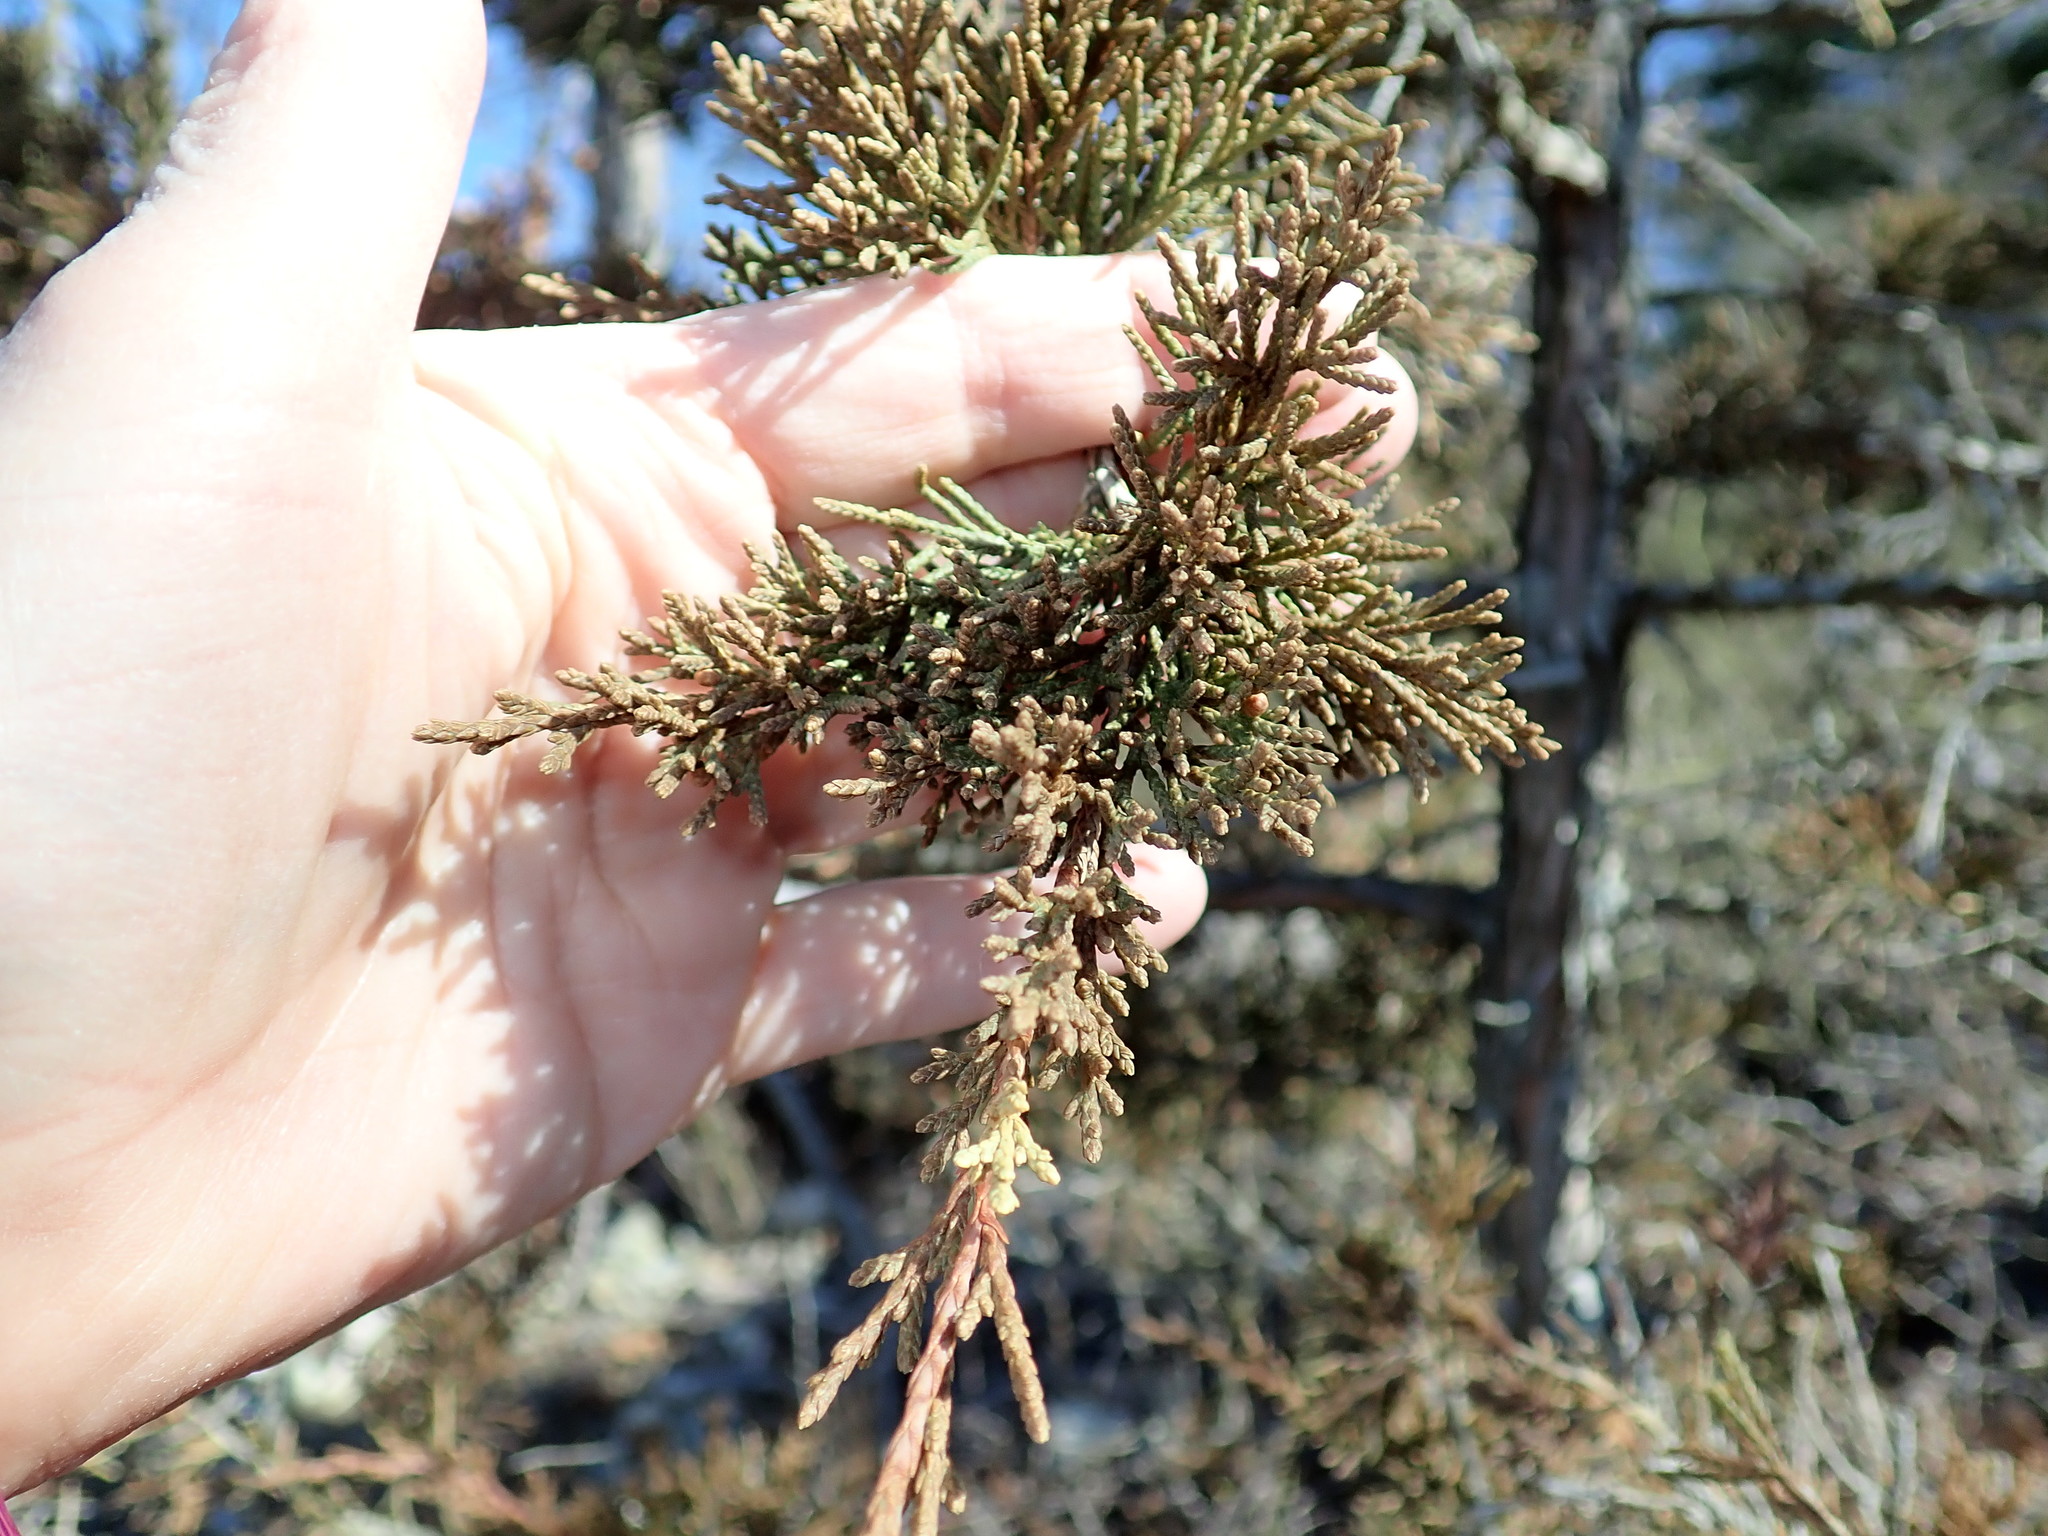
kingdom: Plantae
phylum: Tracheophyta
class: Pinopsida
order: Pinales
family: Cupressaceae
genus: Juniperus
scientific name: Juniperus virginiana
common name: Red juniper
